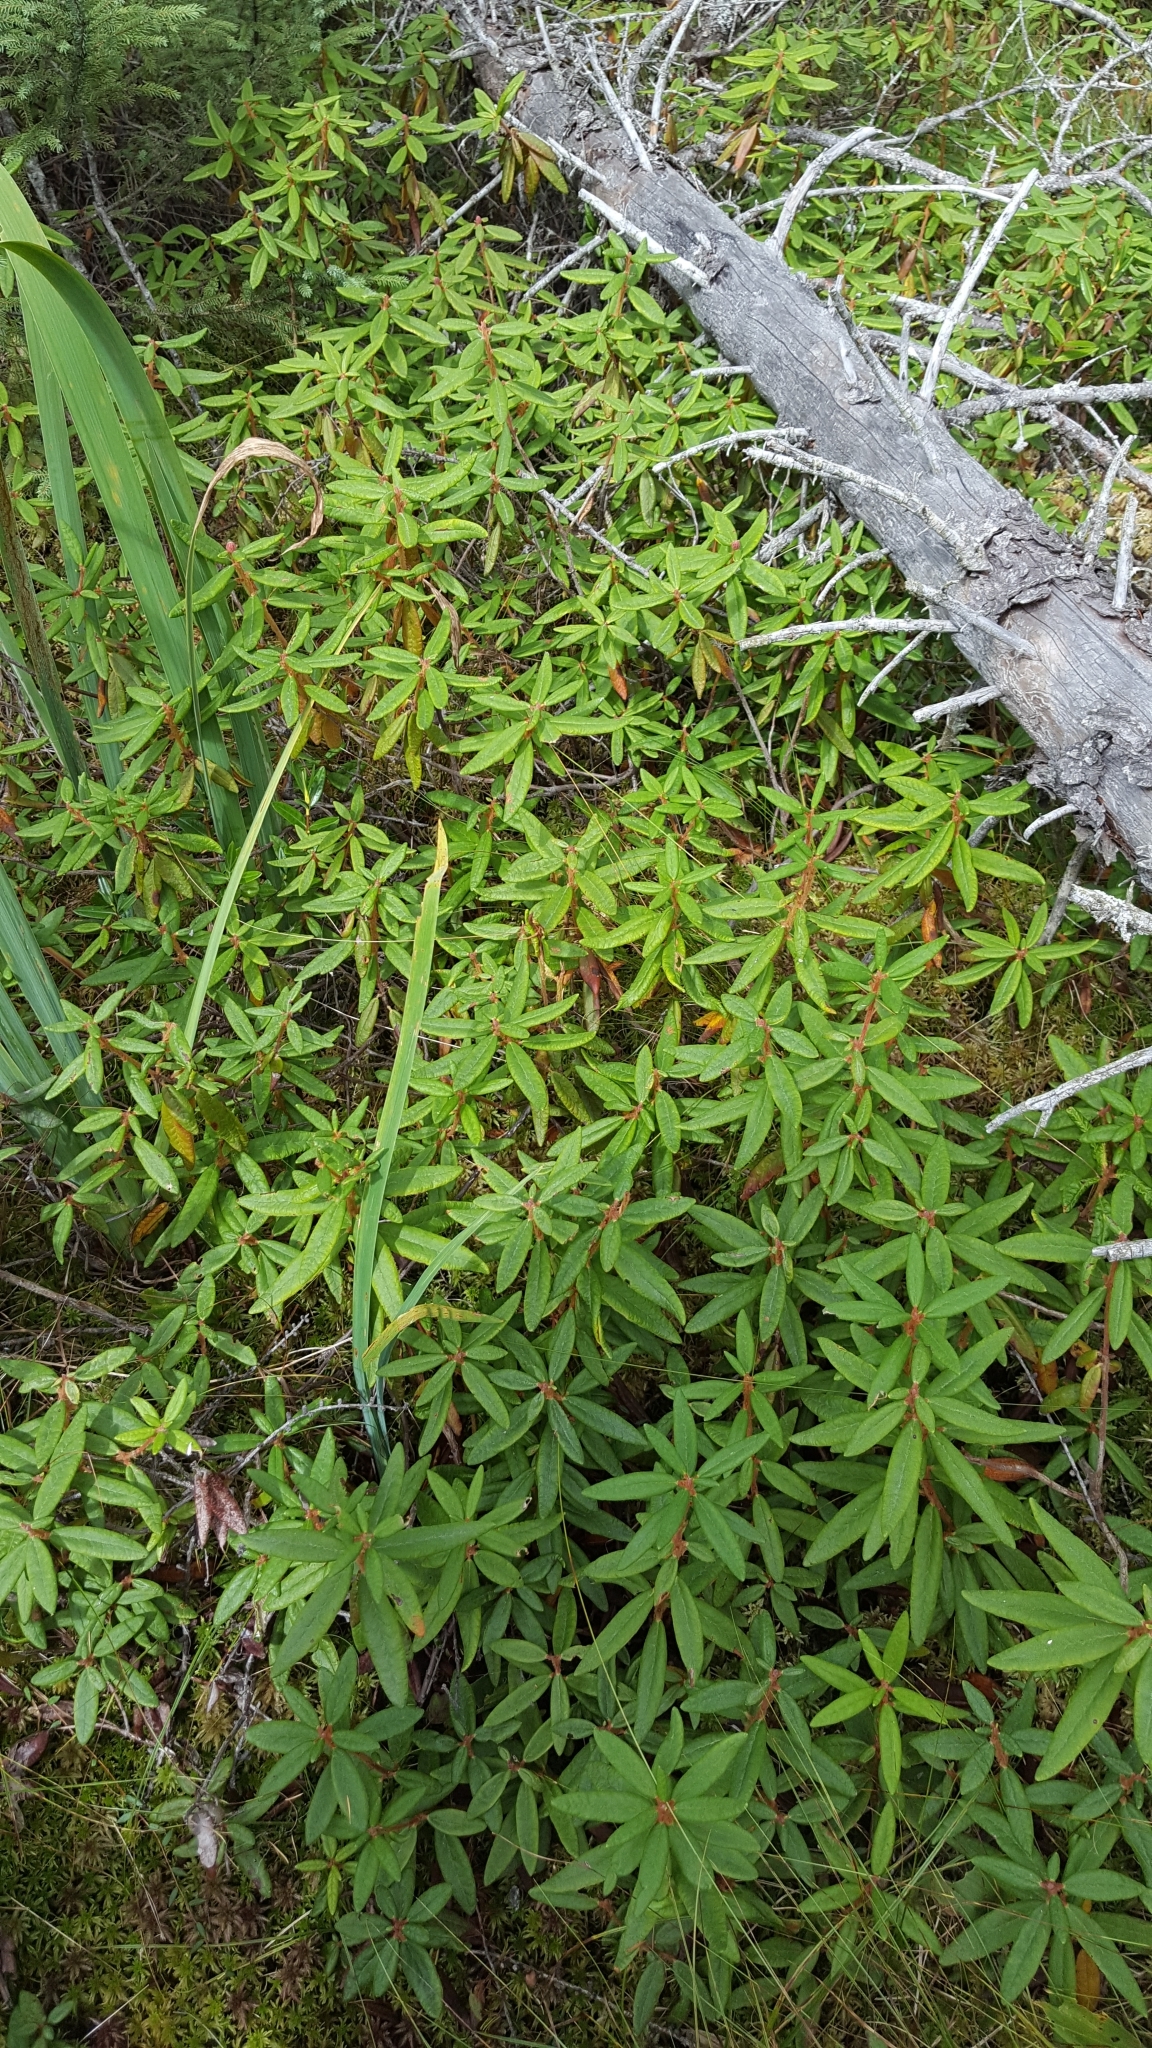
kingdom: Plantae
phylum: Tracheophyta
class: Magnoliopsida
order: Ericales
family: Ericaceae
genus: Rhododendron
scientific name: Rhododendron groenlandicum
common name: Bog labrador tea
